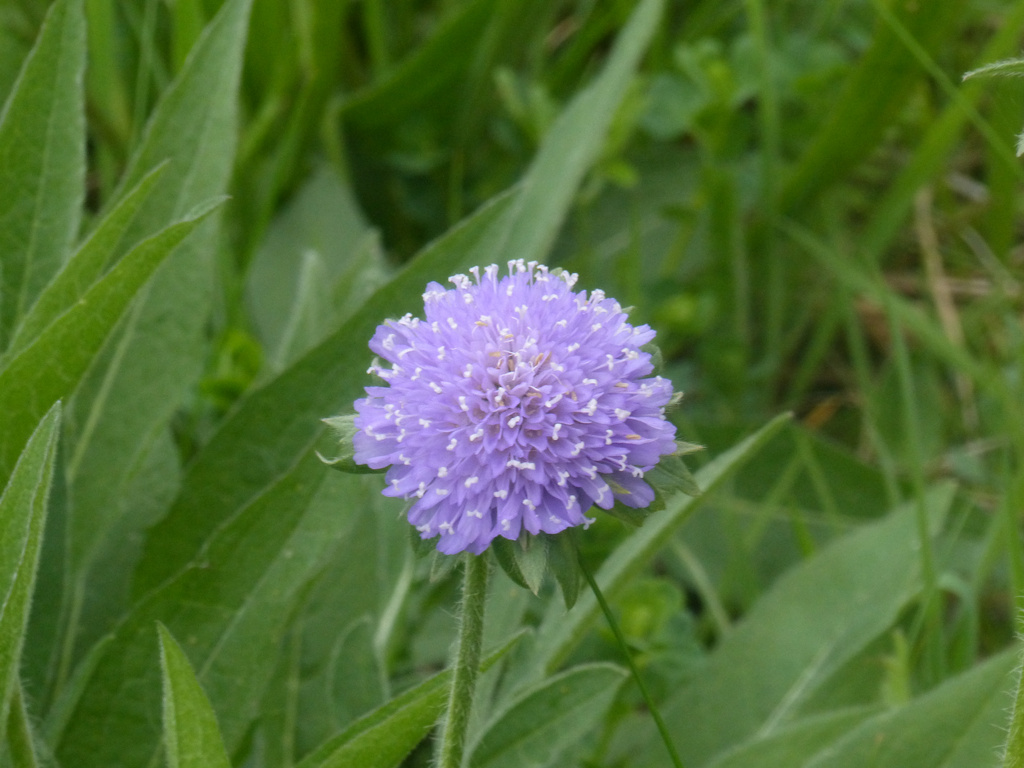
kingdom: Plantae
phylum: Tracheophyta
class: Magnoliopsida
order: Dipsacales
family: Caprifoliaceae
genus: Knautia
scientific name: Knautia arvensis
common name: Field scabiosa
